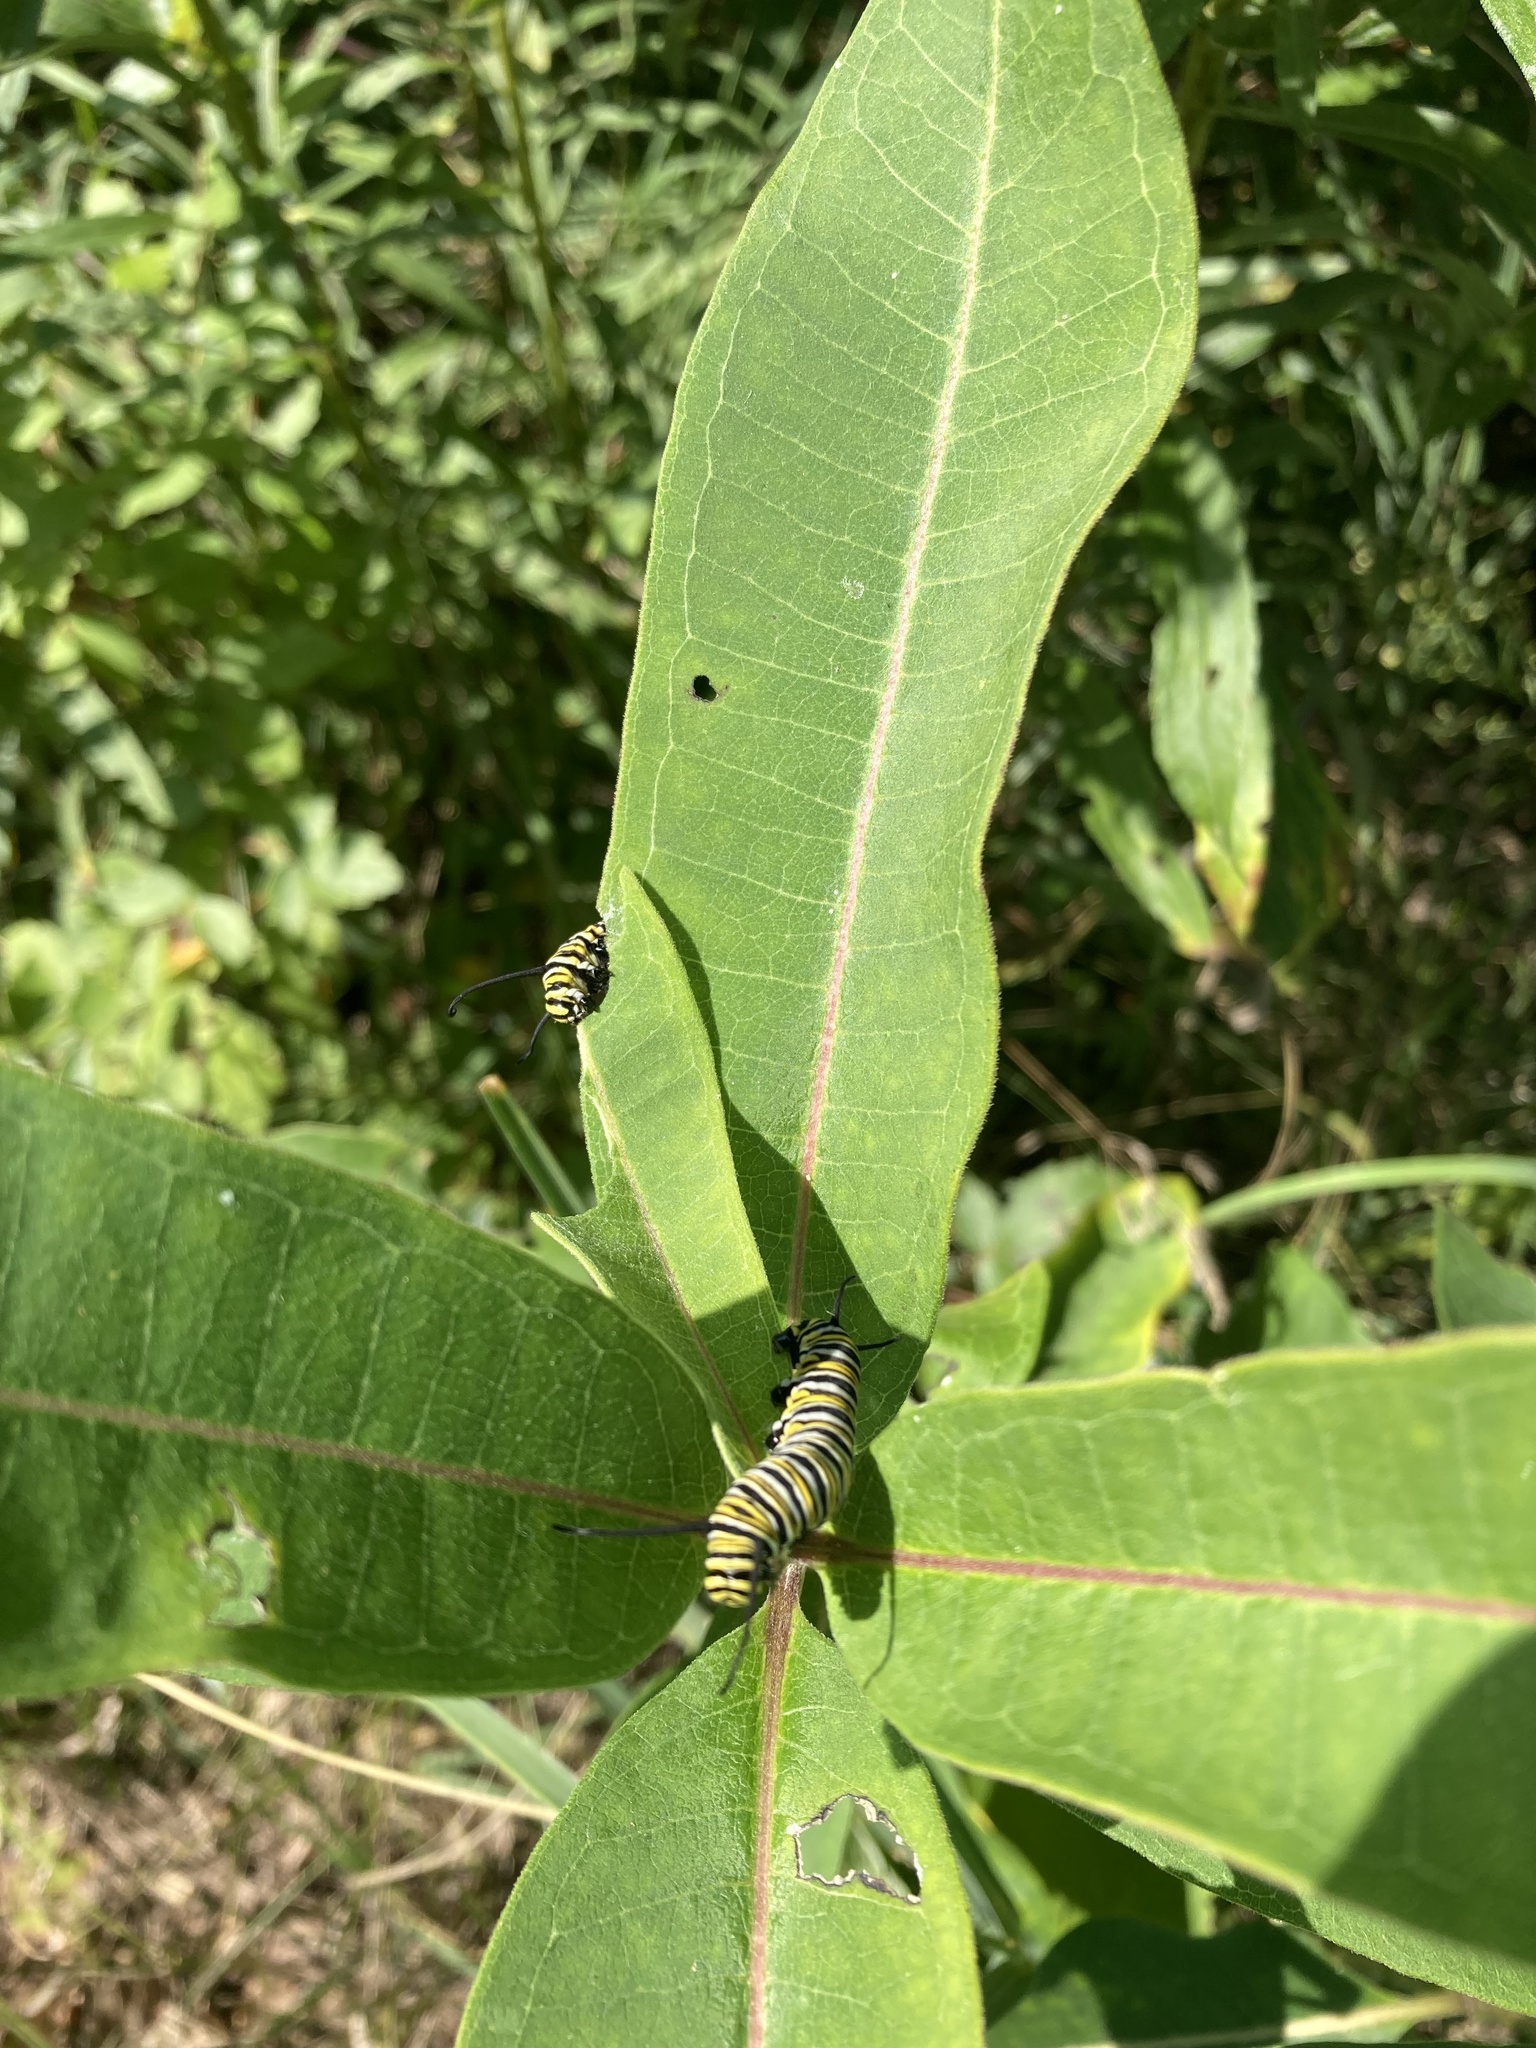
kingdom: Animalia
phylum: Arthropoda
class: Insecta
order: Lepidoptera
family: Nymphalidae
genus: Danaus
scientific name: Danaus plexippus
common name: Monarch
